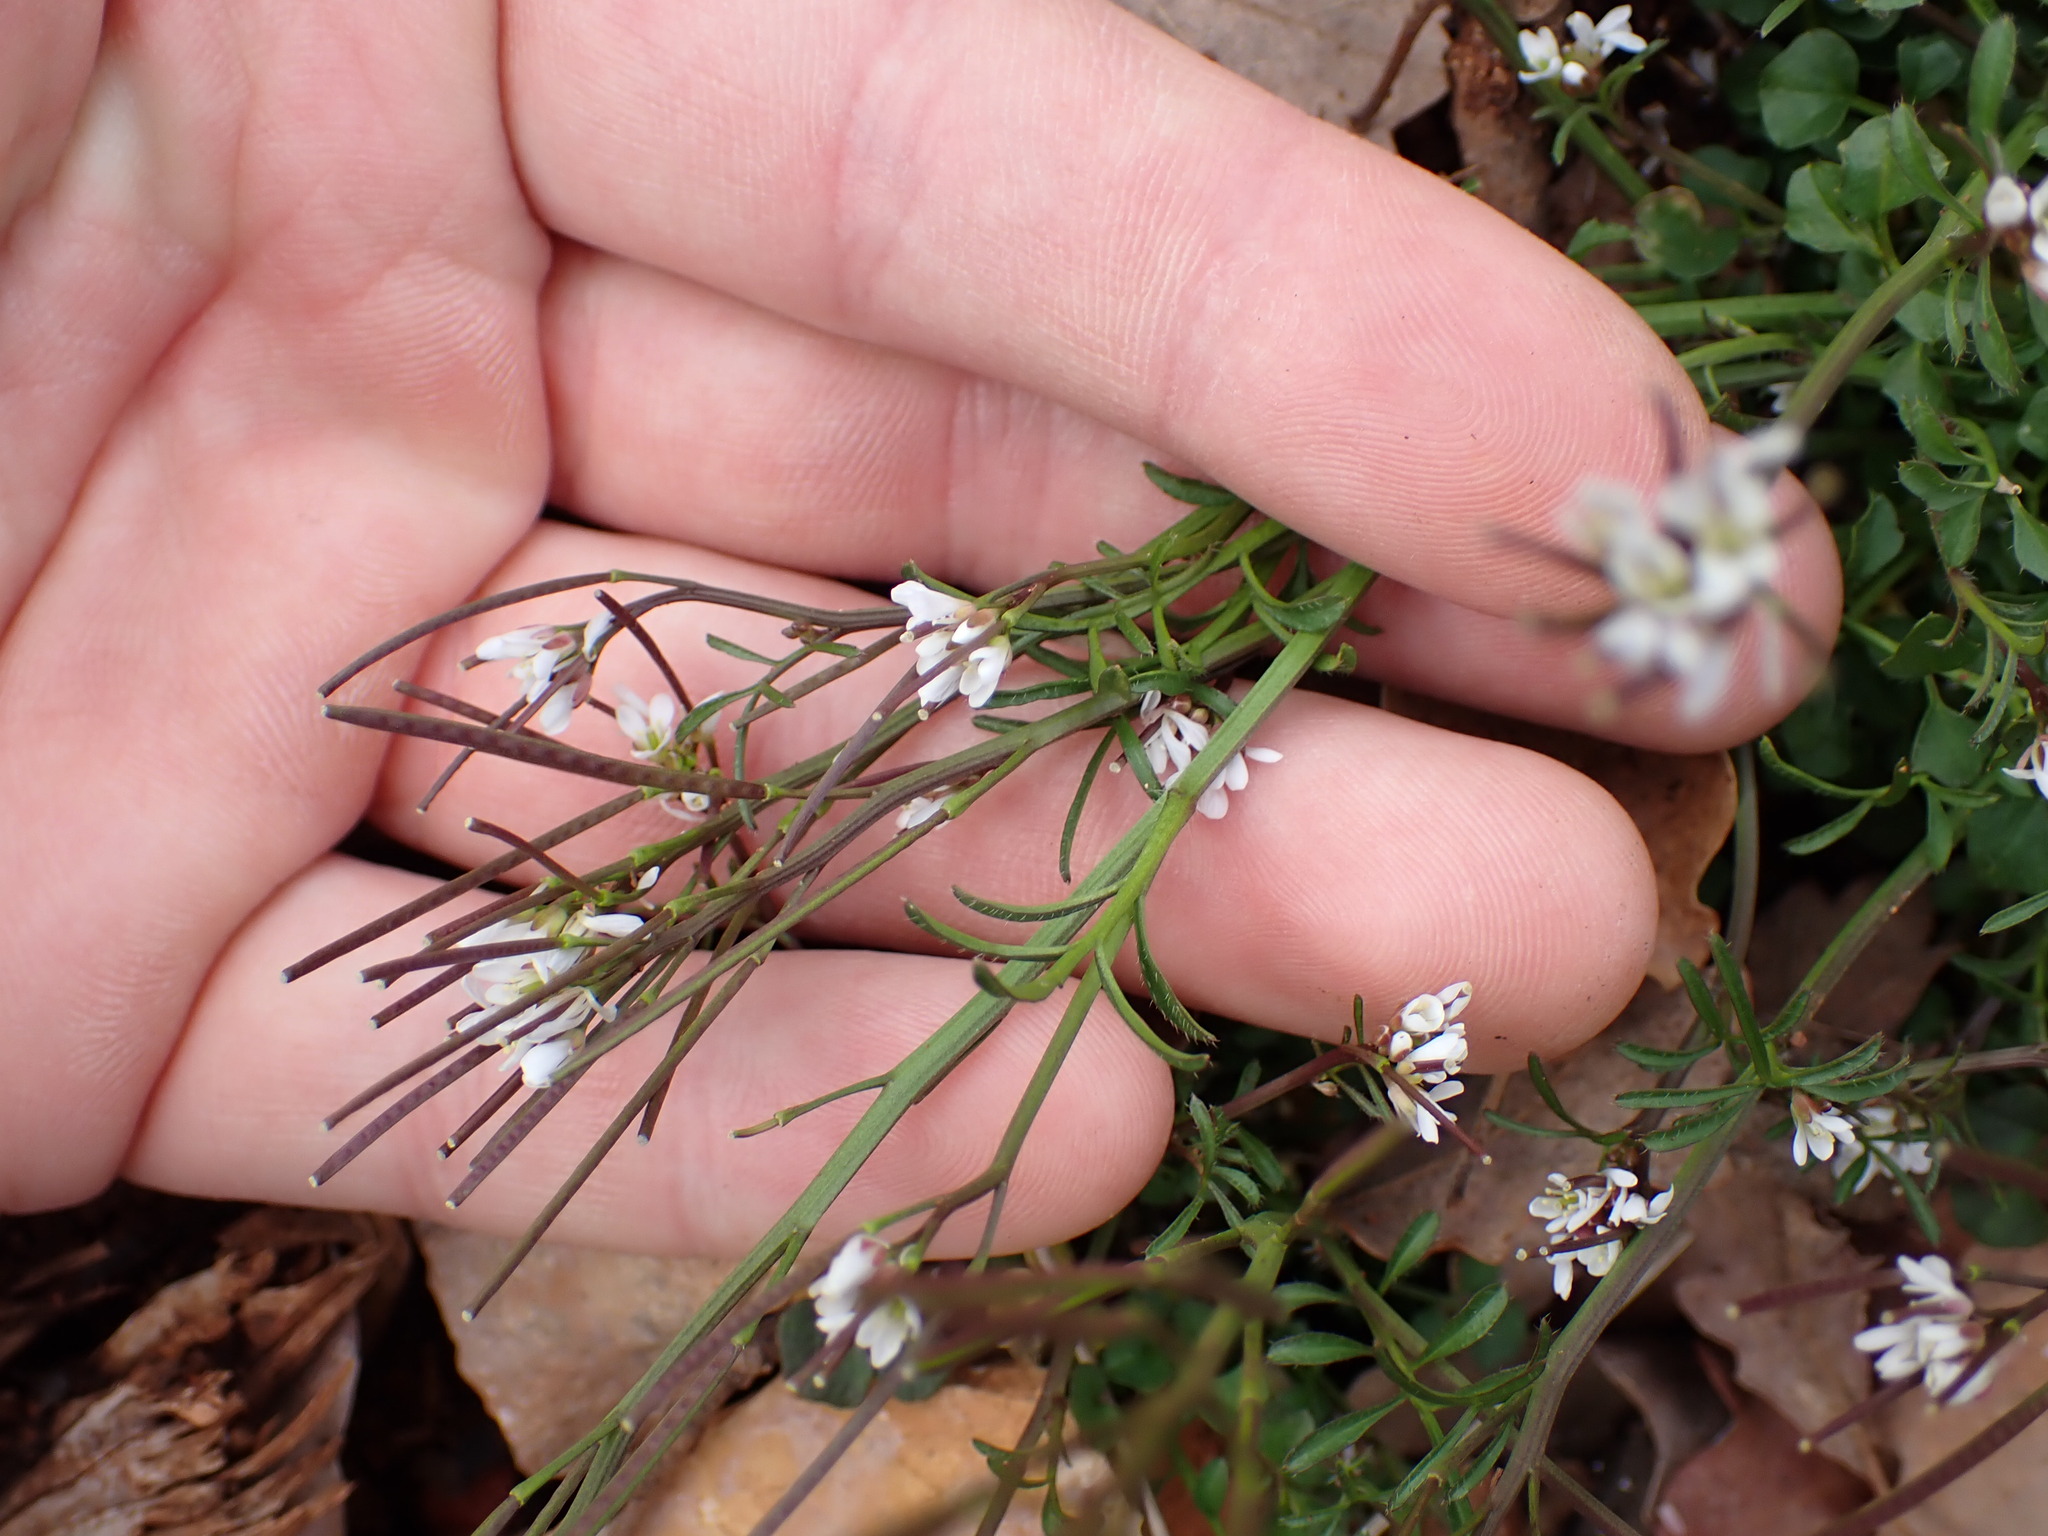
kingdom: Plantae
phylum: Tracheophyta
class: Magnoliopsida
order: Brassicales
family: Brassicaceae
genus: Cardamine
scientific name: Cardamine hirsuta
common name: Hairy bittercress
